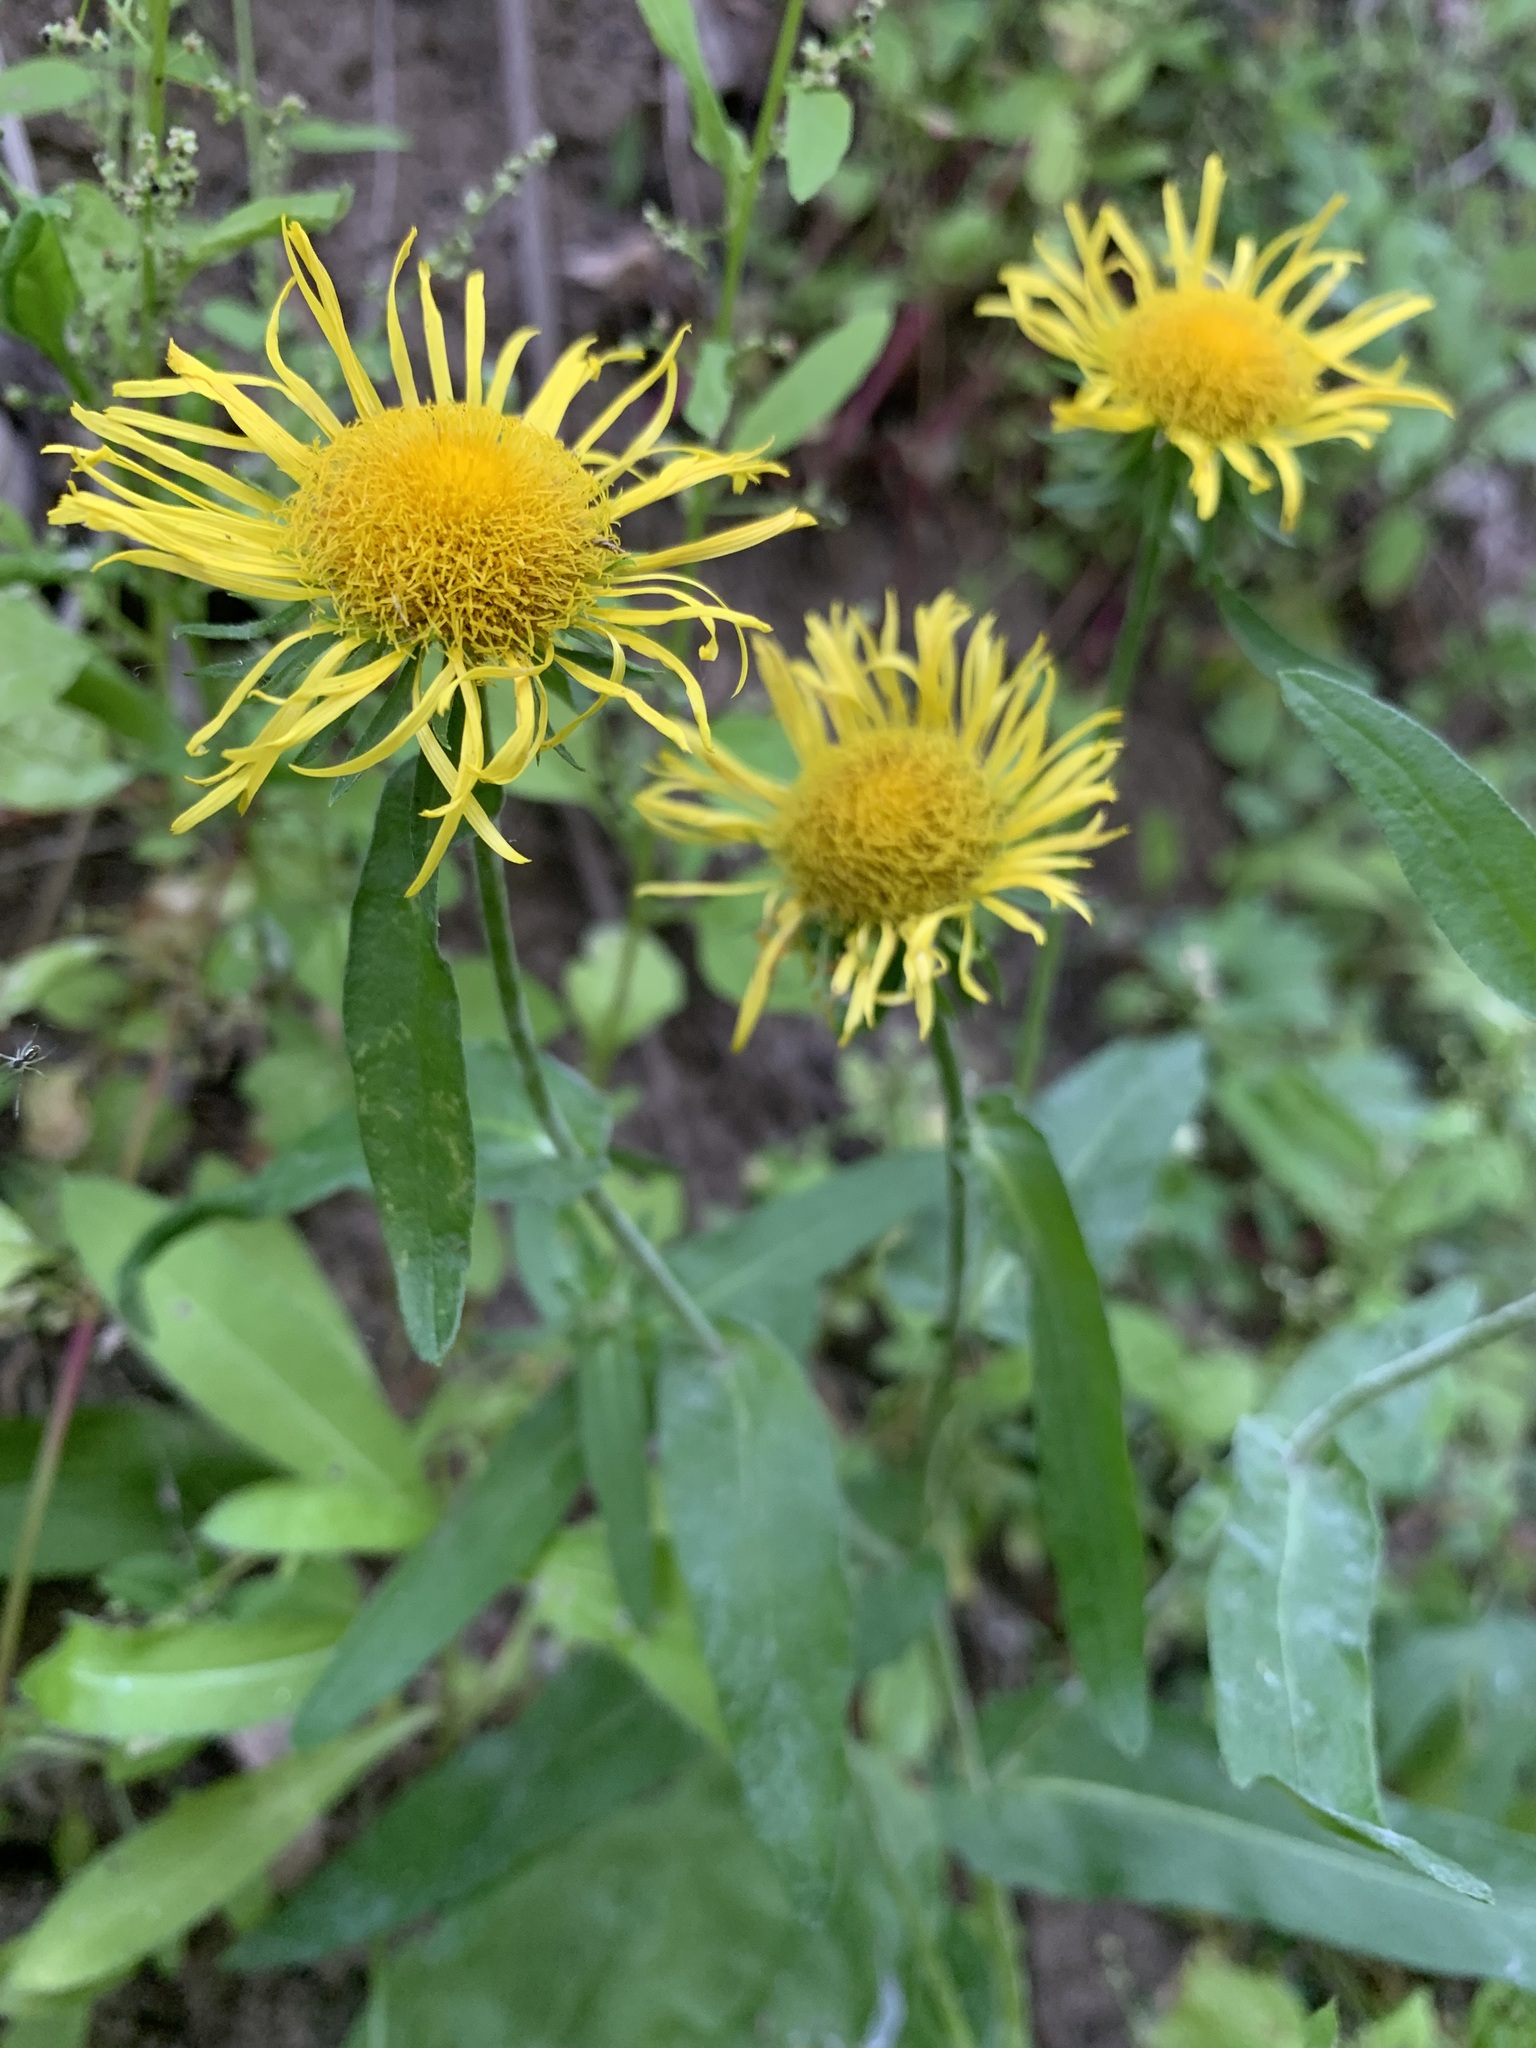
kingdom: Plantae
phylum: Tracheophyta
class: Magnoliopsida
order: Asterales
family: Asteraceae
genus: Pentanema
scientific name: Pentanema britannicum
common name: British elecampane
